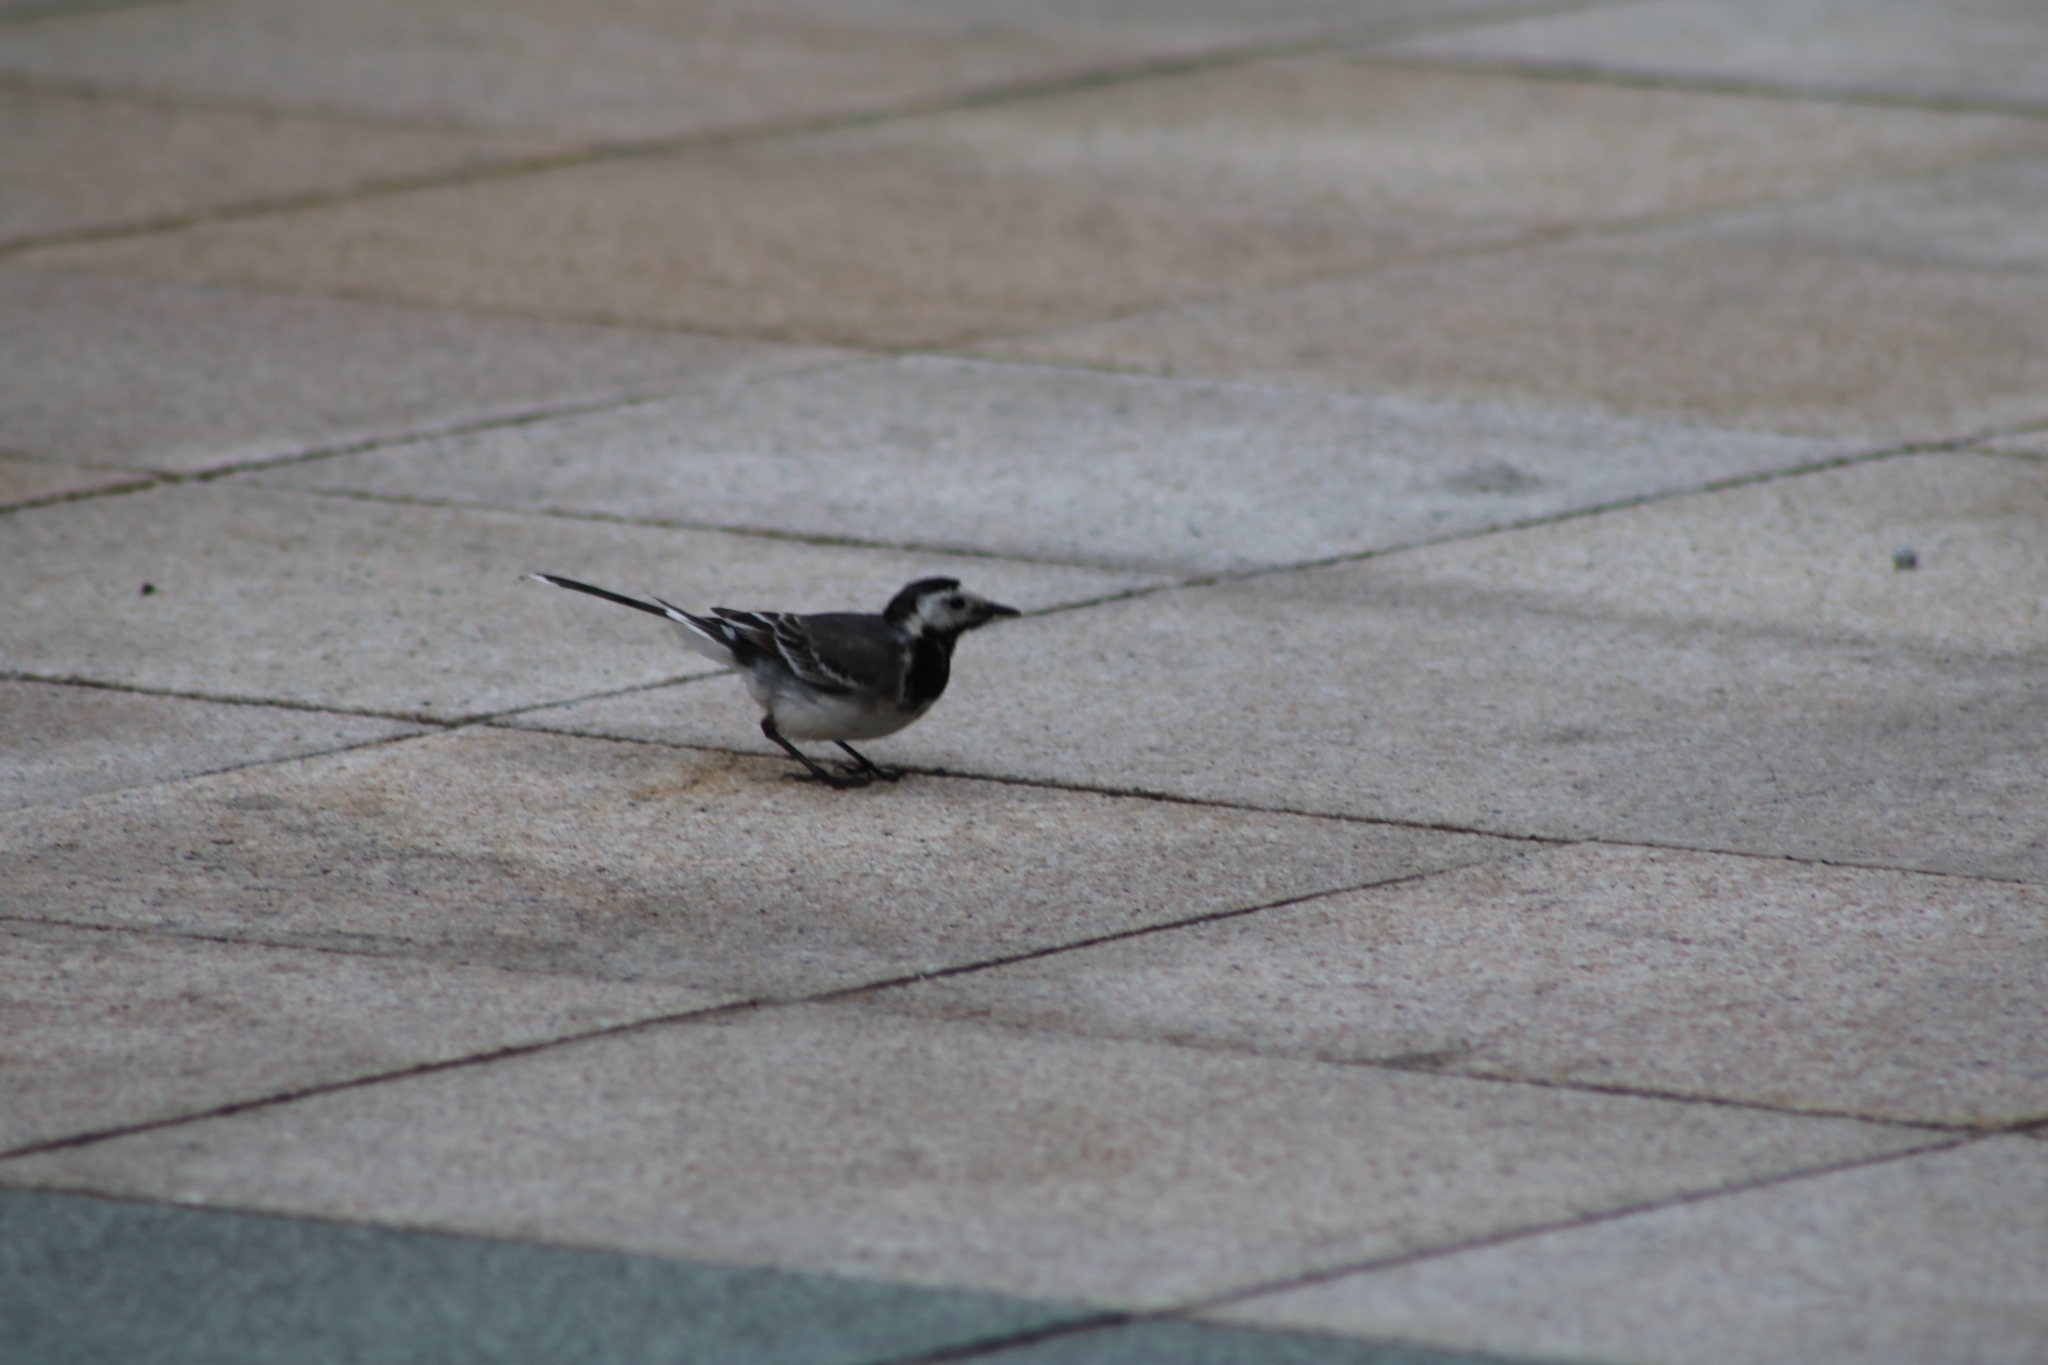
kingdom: Animalia
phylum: Chordata
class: Aves
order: Passeriformes
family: Motacillidae
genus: Motacilla
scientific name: Motacilla alba
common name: White wagtail
